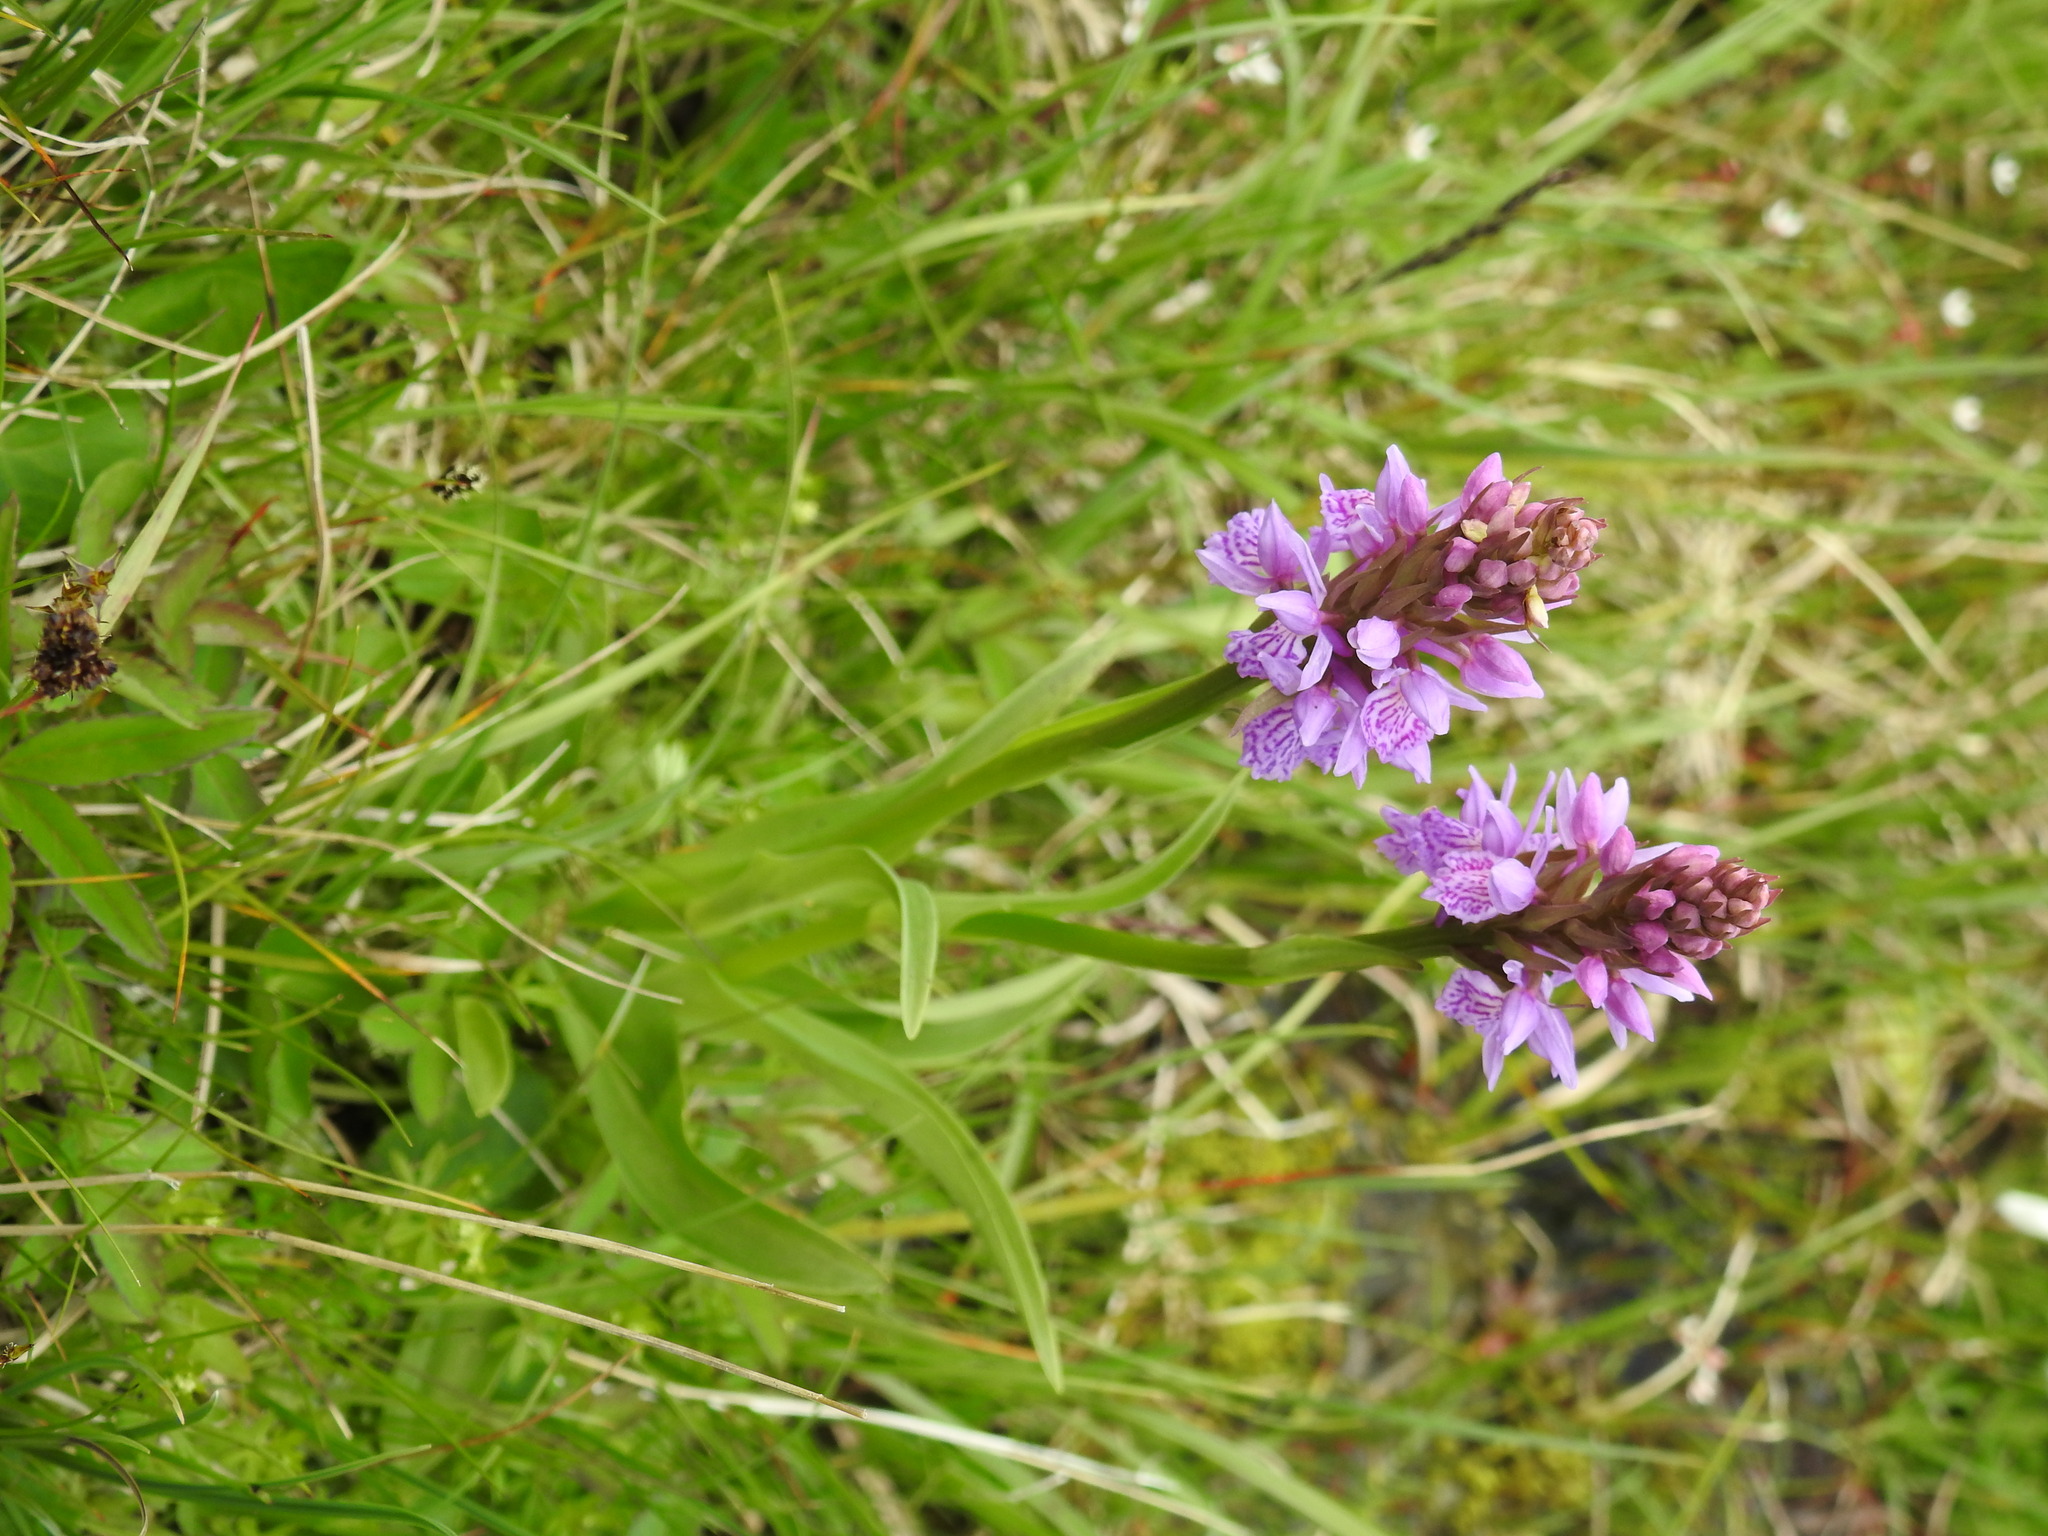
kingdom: Plantae
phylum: Tracheophyta
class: Liliopsida
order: Asparagales
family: Orchidaceae
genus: Dactylorhiza
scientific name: Dactylorhiza maculata
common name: Heath spotted-orchid
